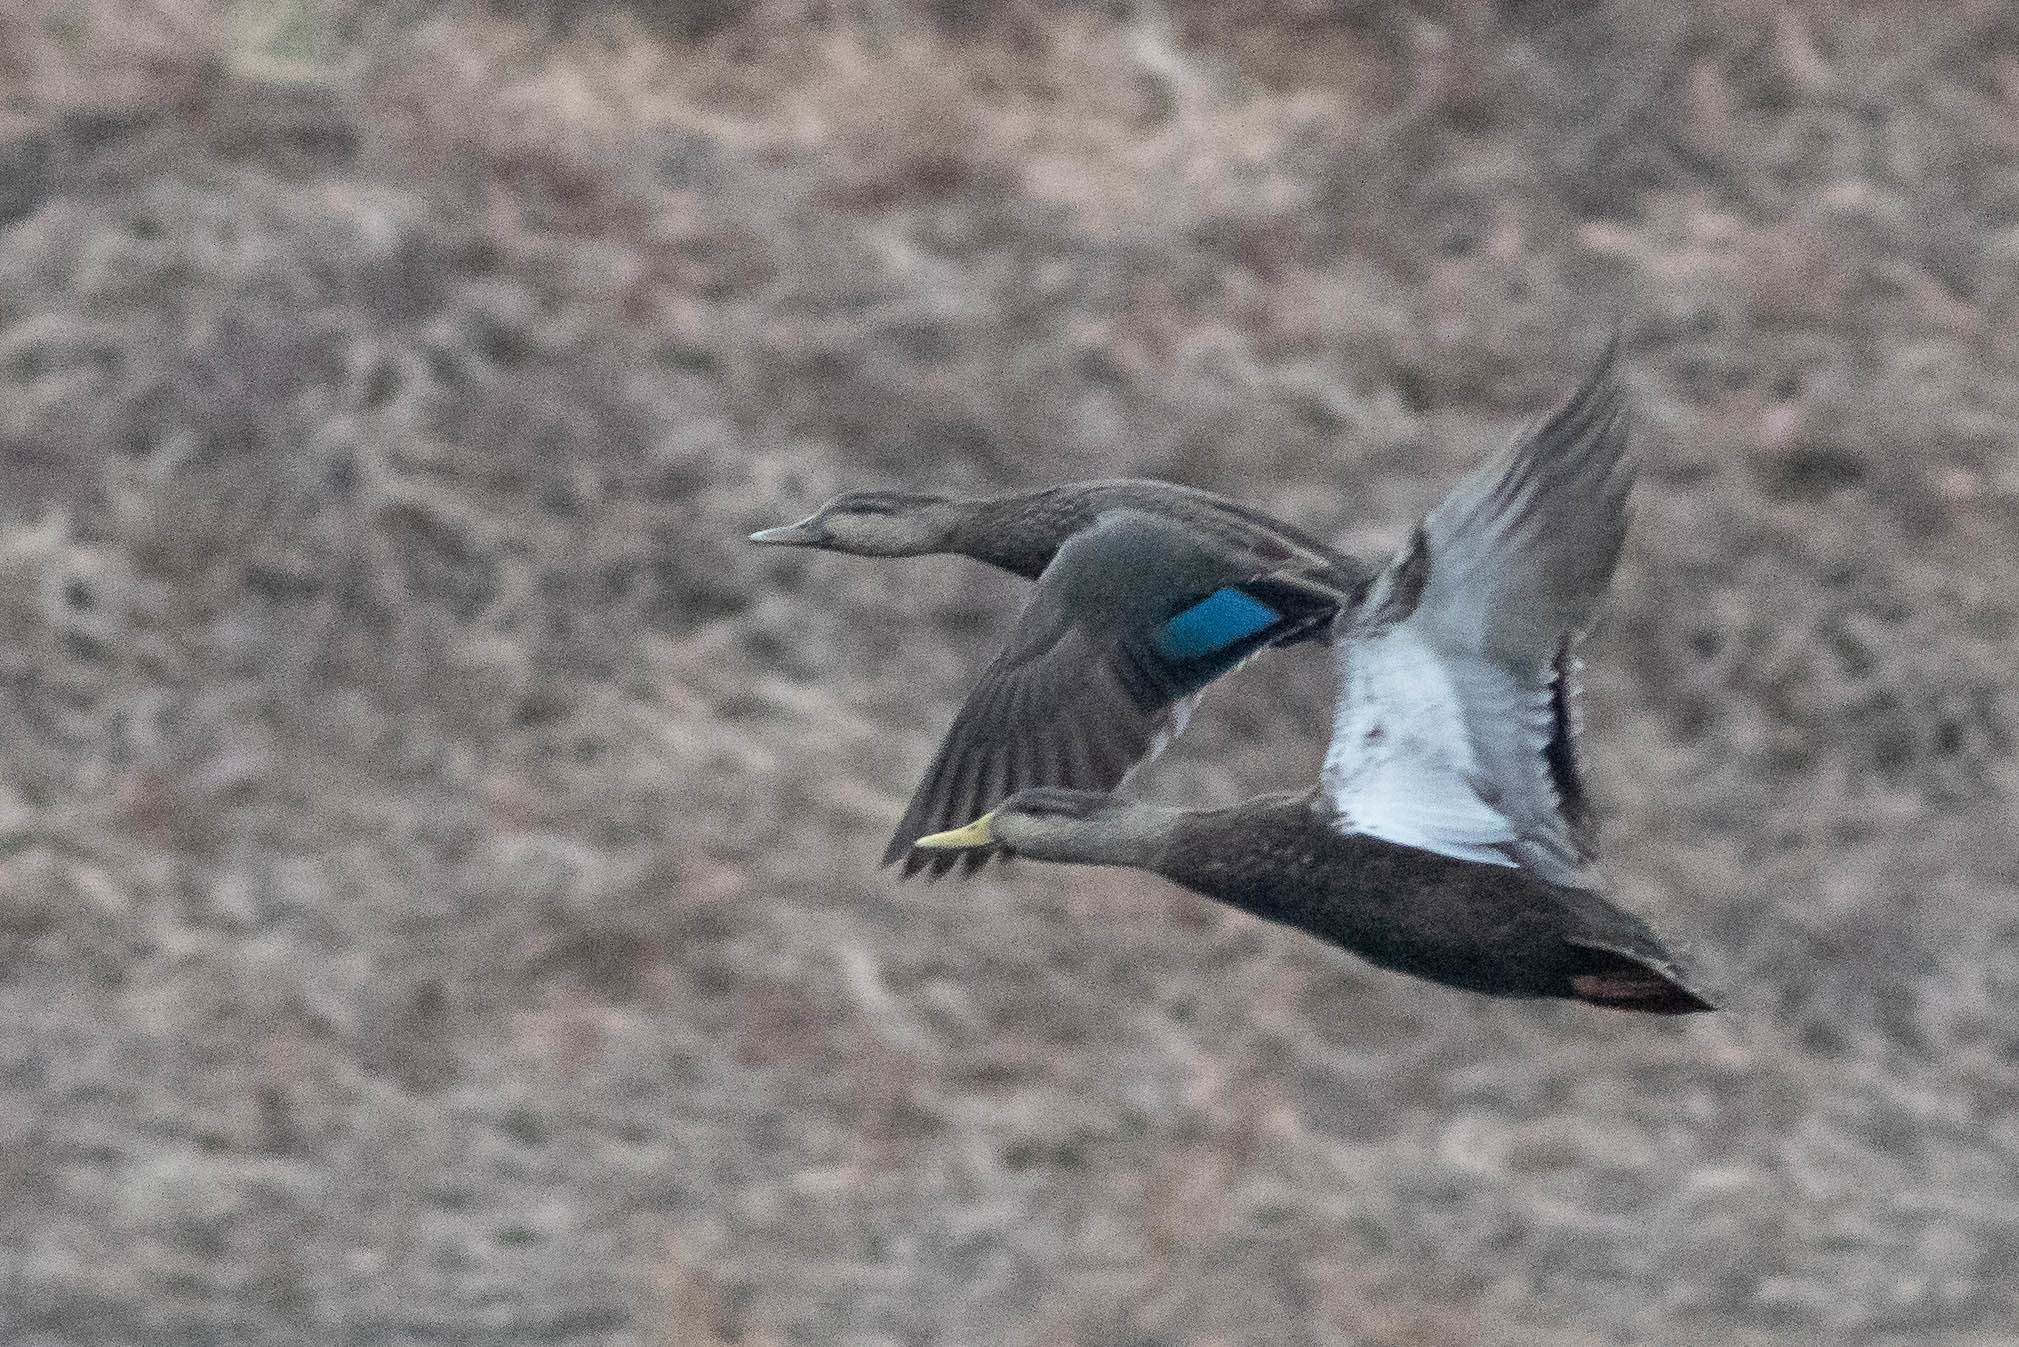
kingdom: Animalia
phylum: Chordata
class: Aves
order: Anseriformes
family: Anatidae
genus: Anas
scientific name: Anas rubripes
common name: American black duck
